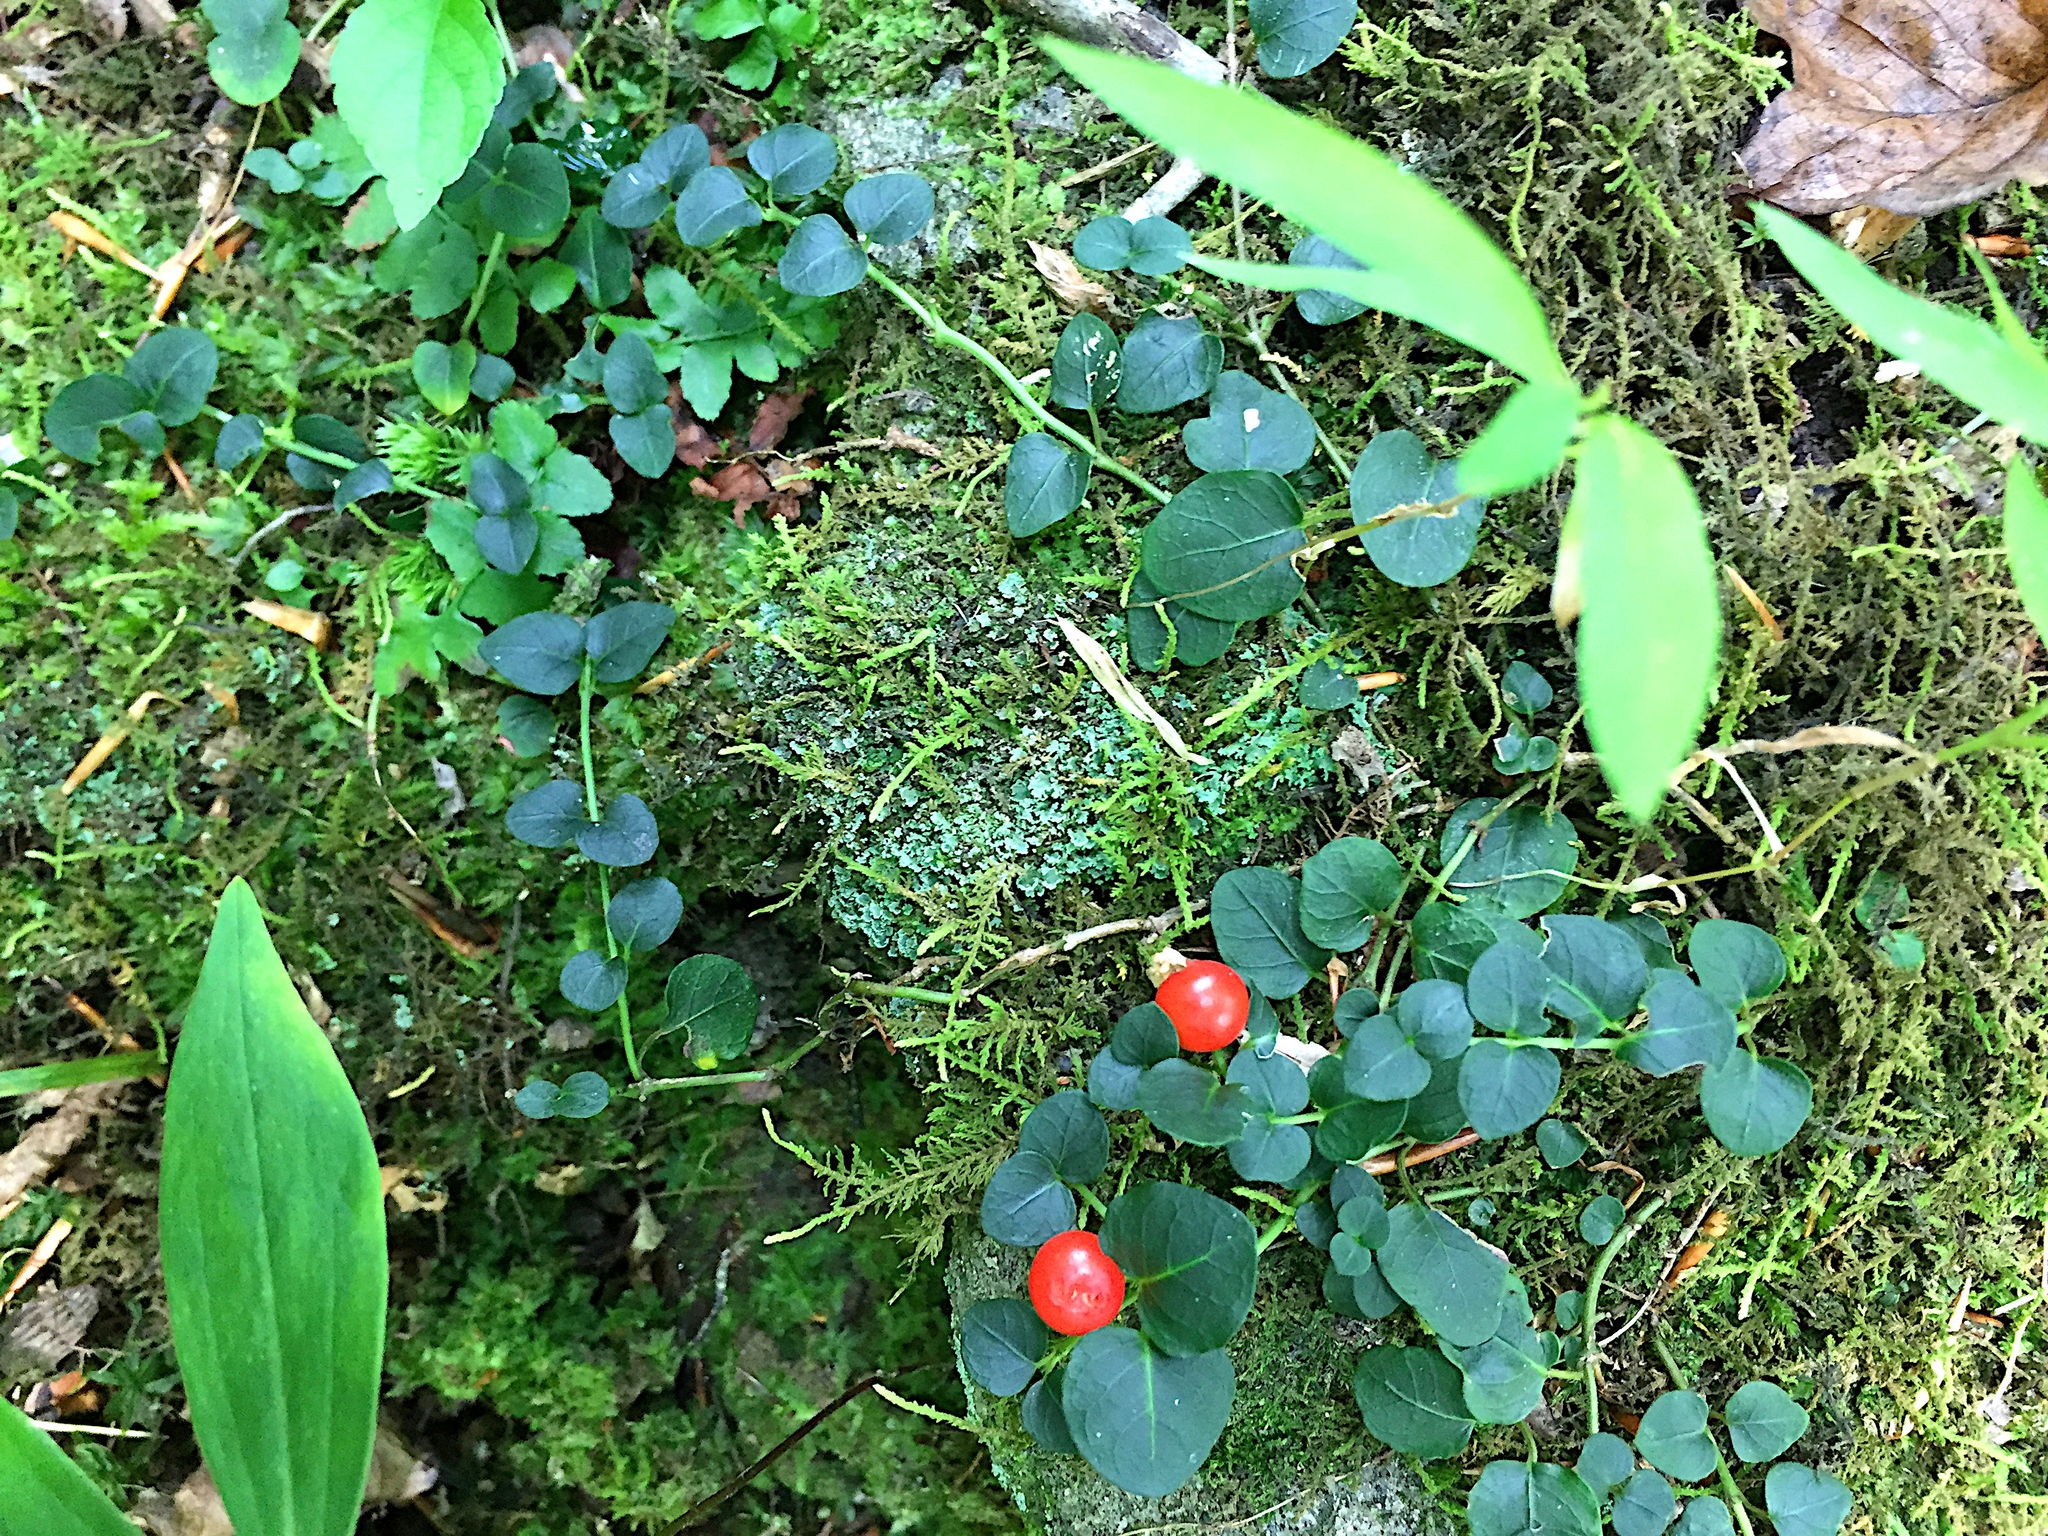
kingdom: Plantae
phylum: Tracheophyta
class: Magnoliopsida
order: Gentianales
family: Rubiaceae
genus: Mitchella
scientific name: Mitchella repens
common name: Partridge-berry
